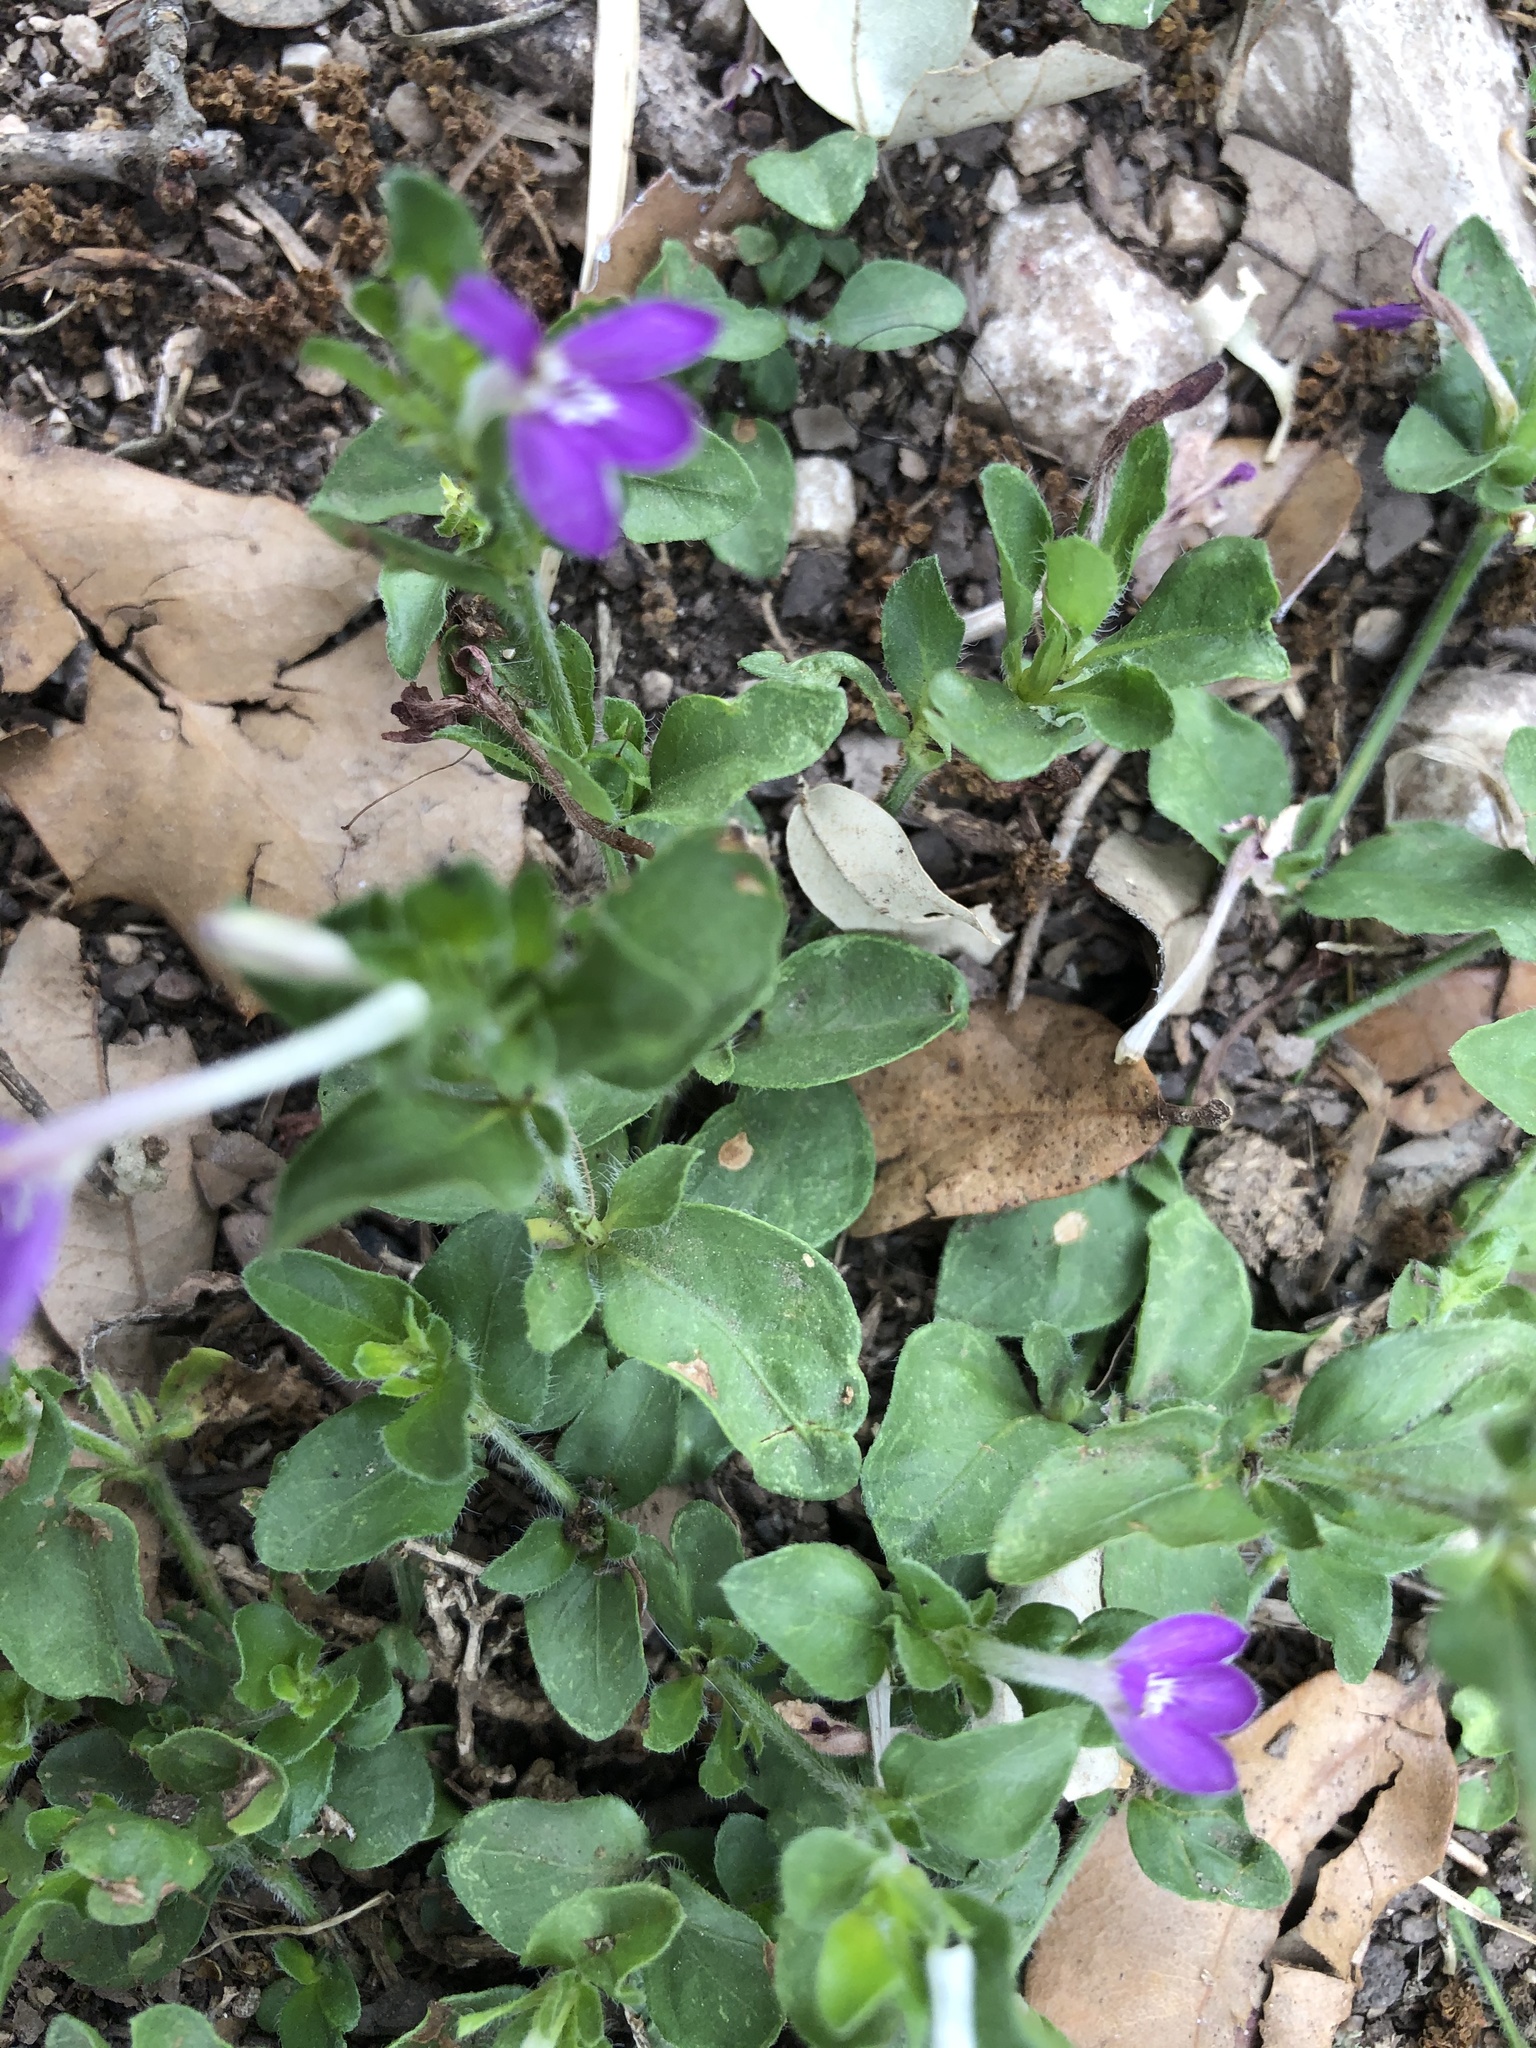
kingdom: Plantae
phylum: Tracheophyta
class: Magnoliopsida
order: Lamiales
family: Acanthaceae
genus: Justicia
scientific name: Justicia pilosella
